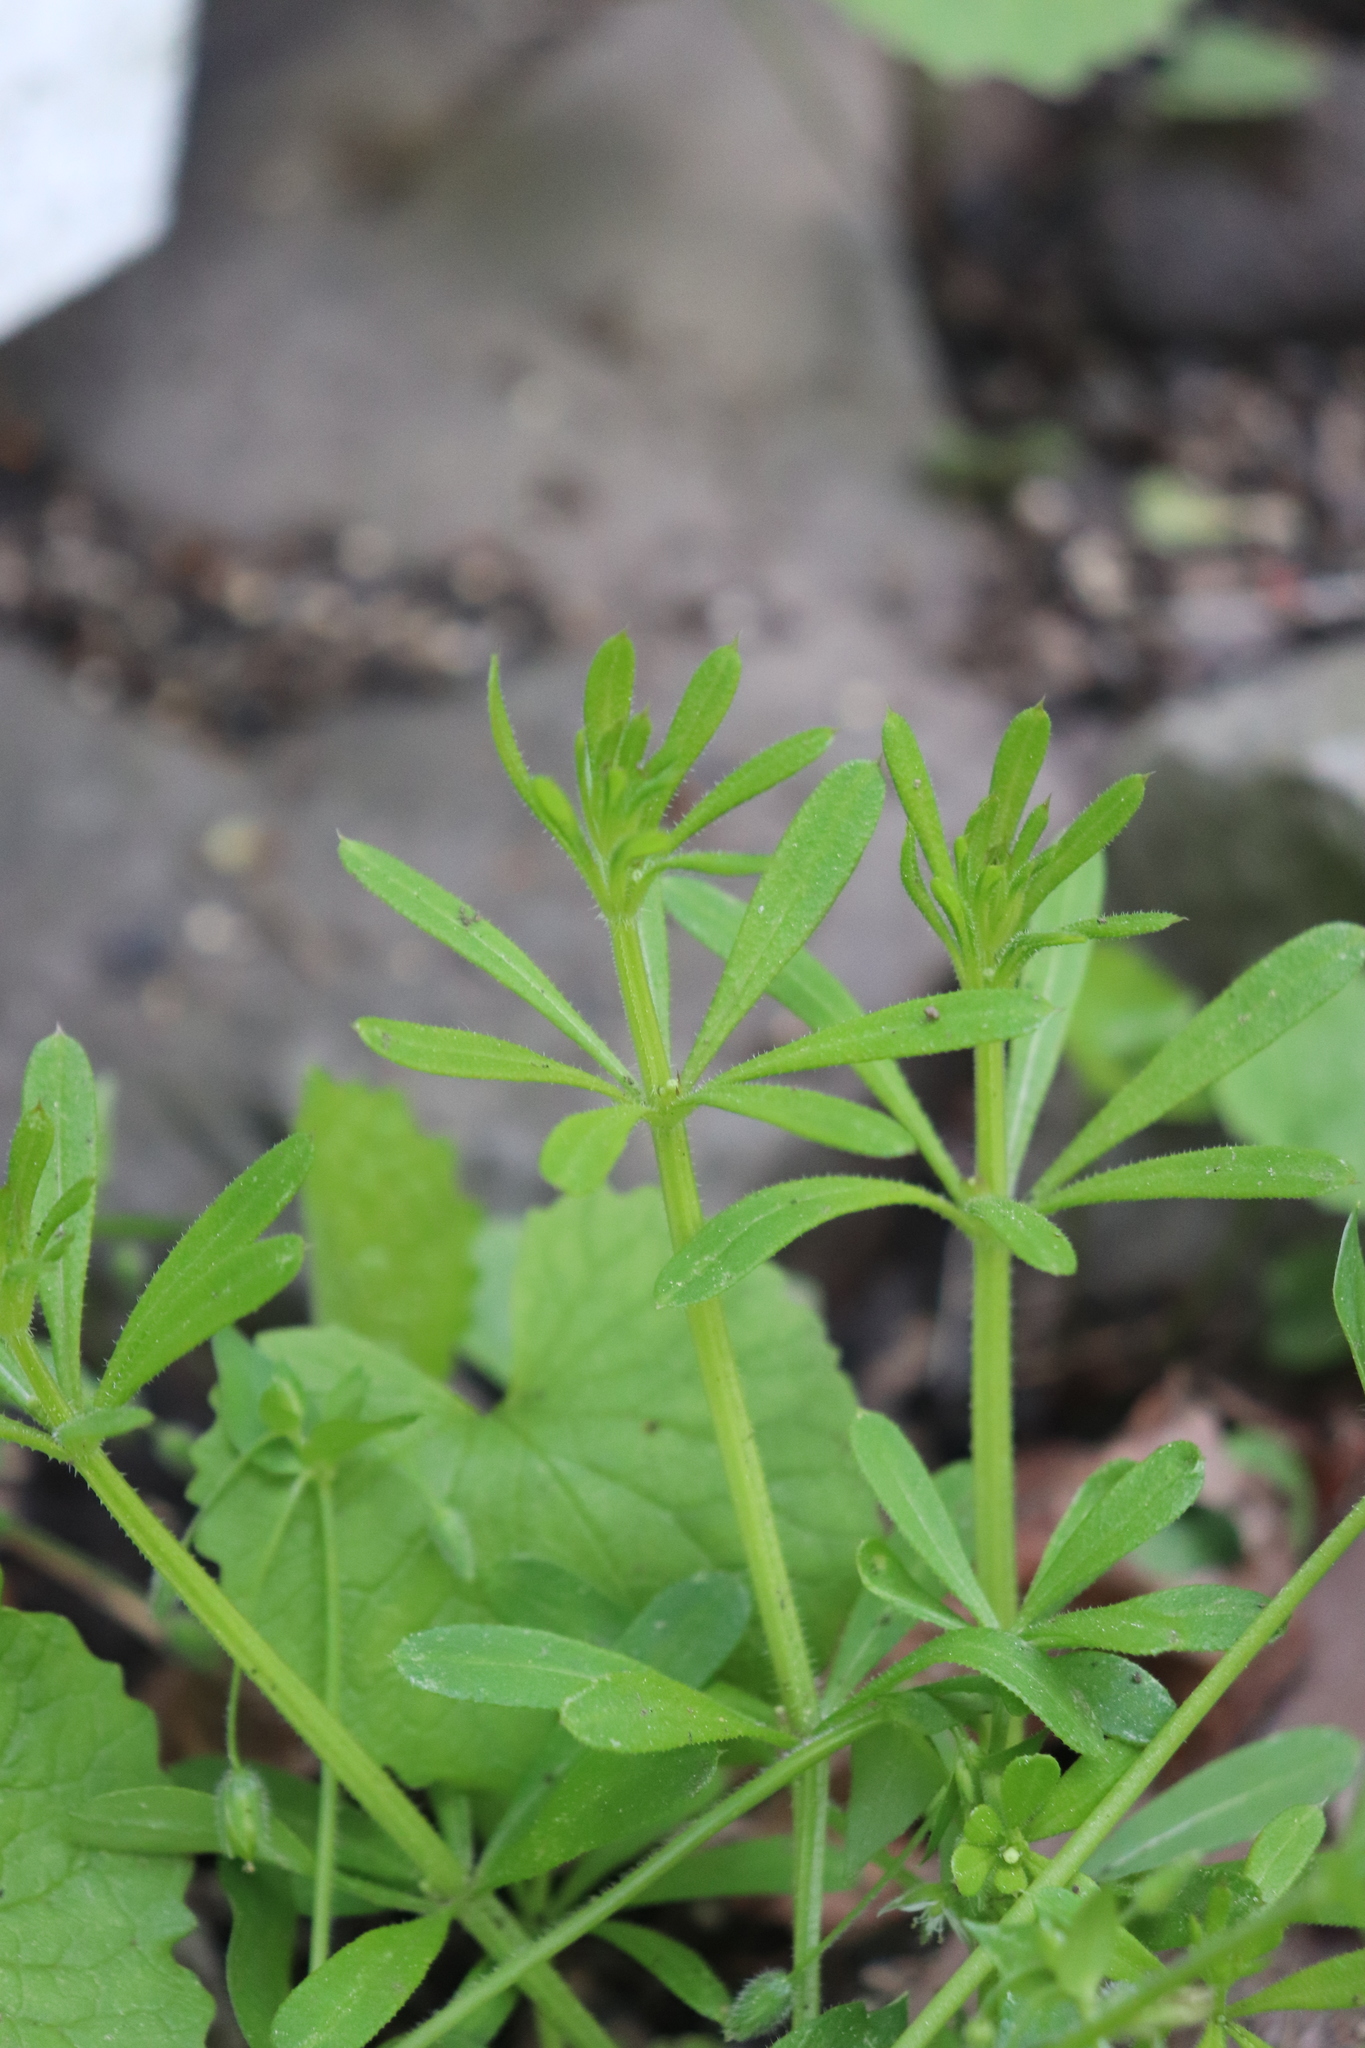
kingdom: Plantae
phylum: Tracheophyta
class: Magnoliopsida
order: Gentianales
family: Rubiaceae
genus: Galium
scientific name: Galium aparine
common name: Cleavers
